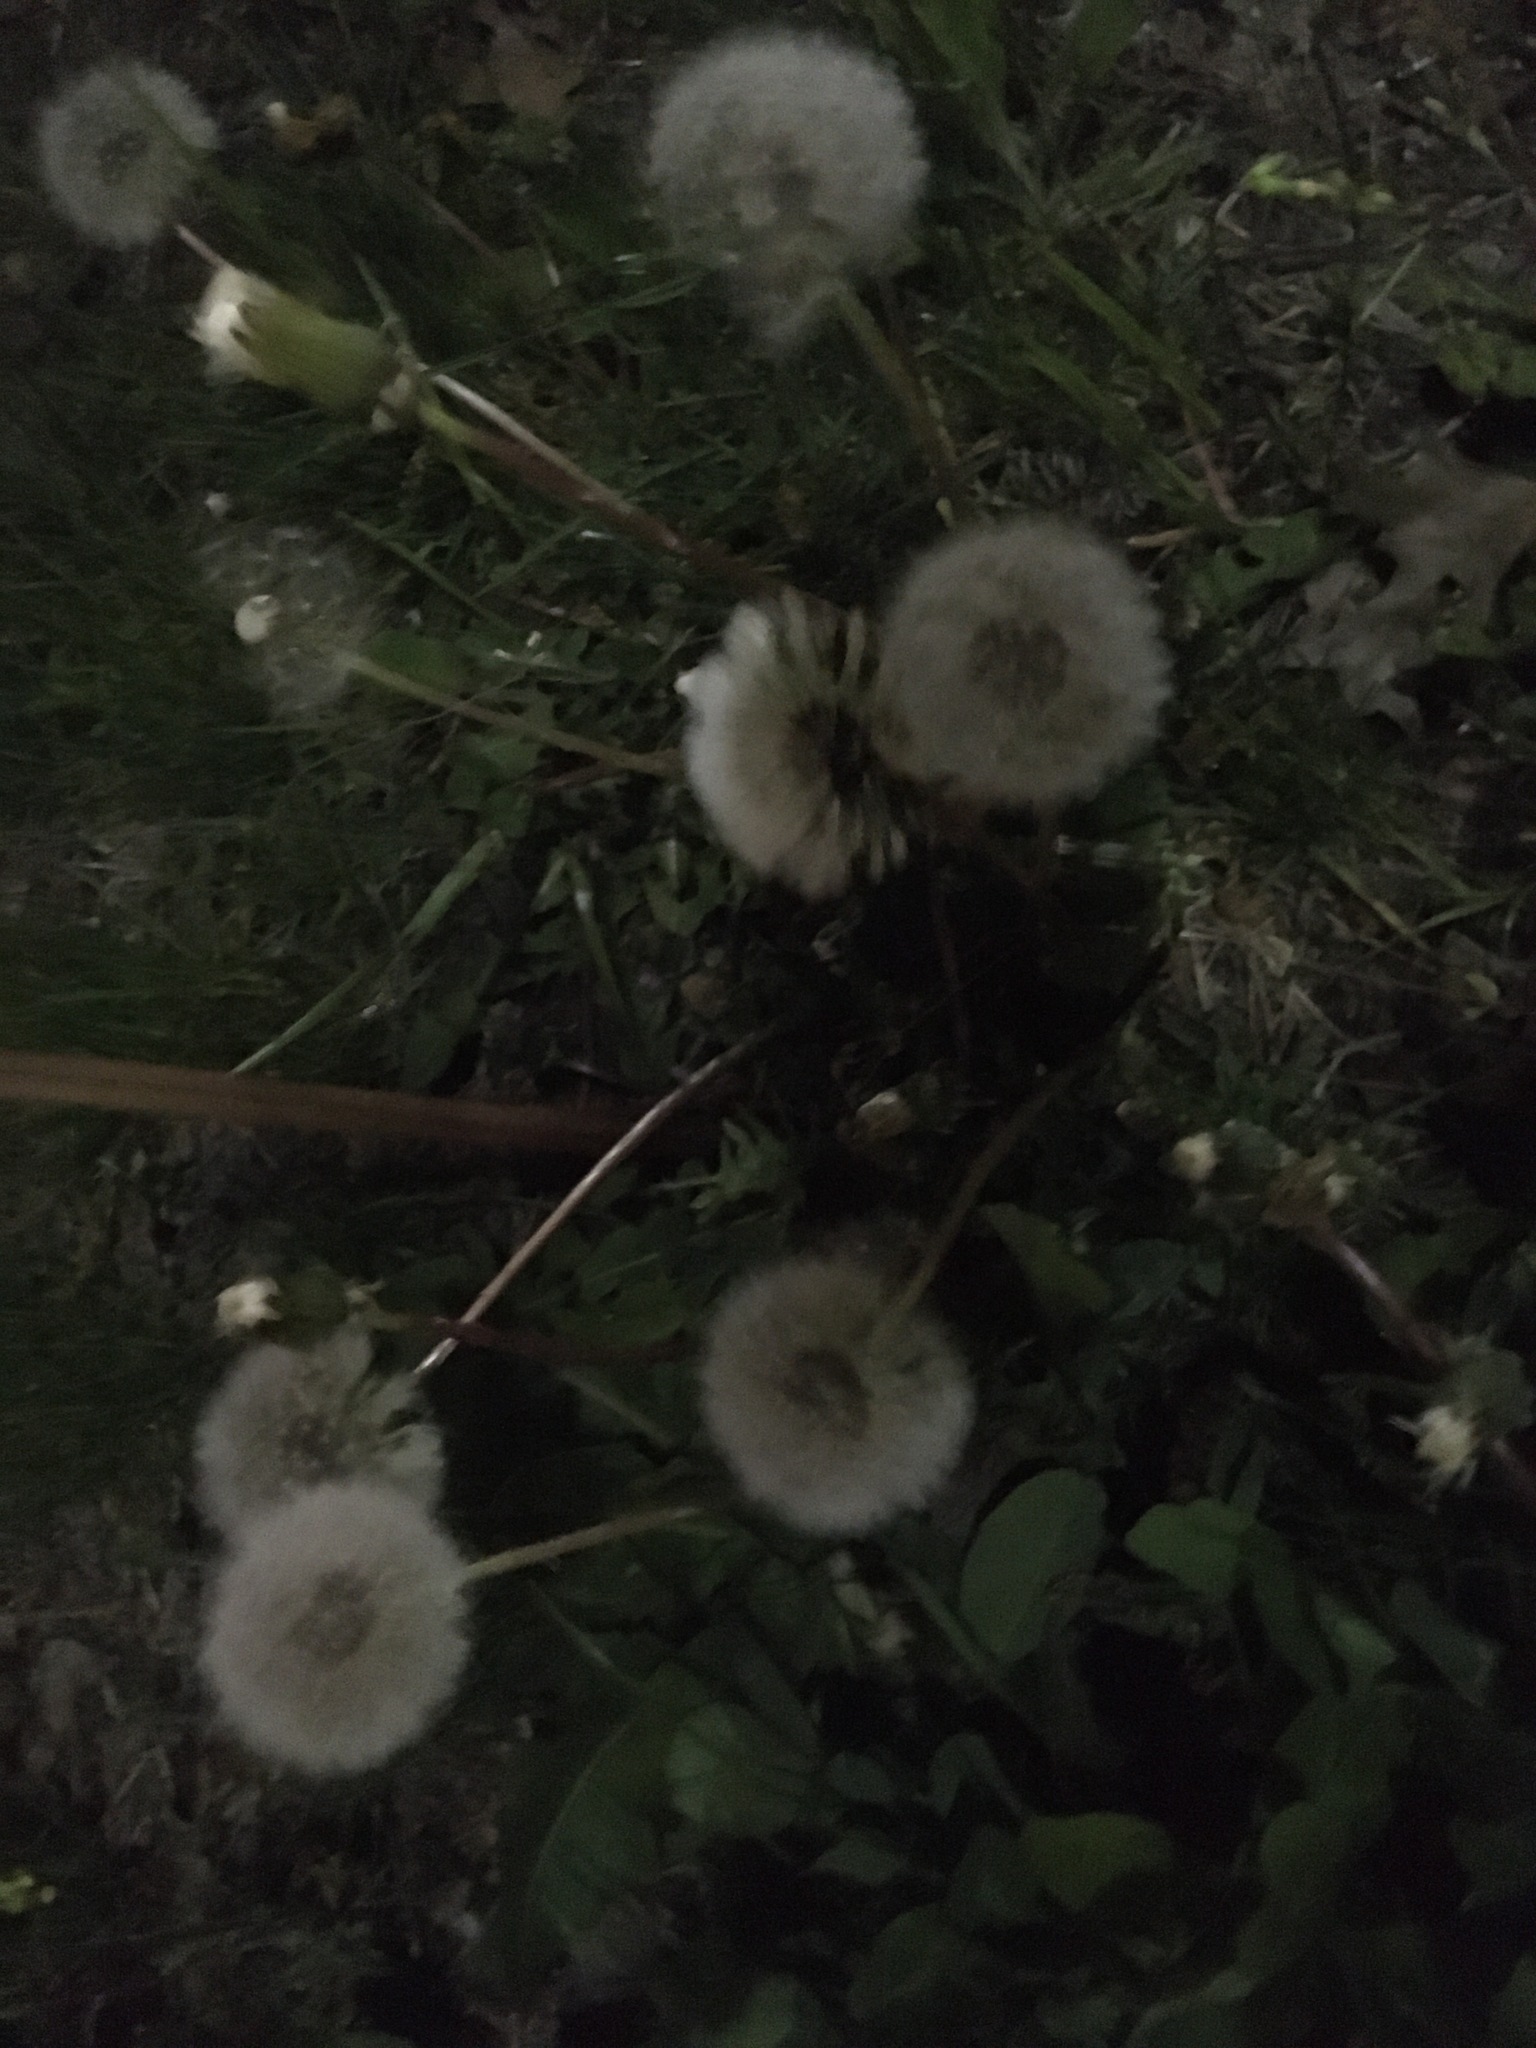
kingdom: Plantae
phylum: Tracheophyta
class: Magnoliopsida
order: Asterales
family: Asteraceae
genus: Taraxacum
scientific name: Taraxacum officinale
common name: Common dandelion
